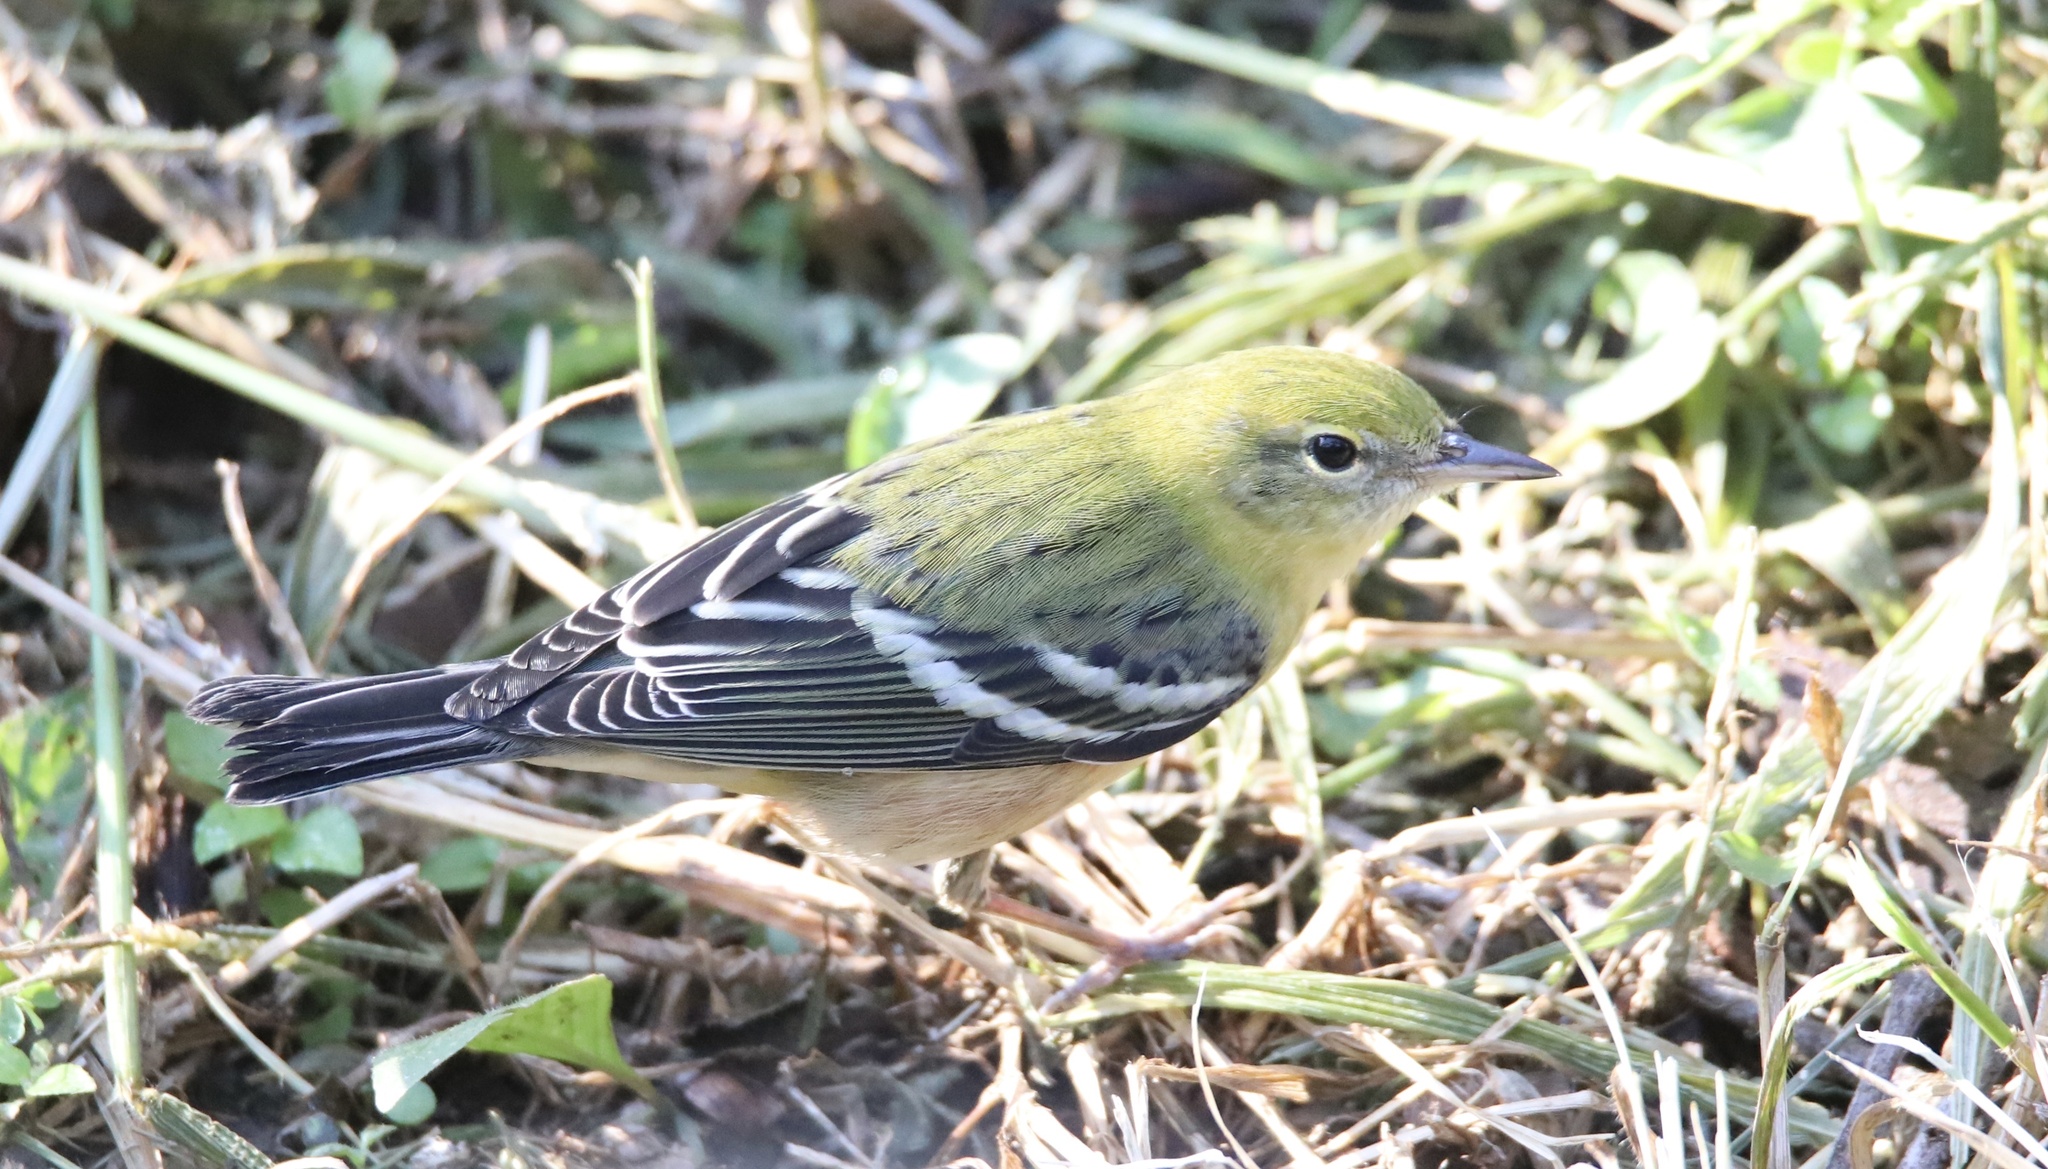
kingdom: Animalia
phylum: Chordata
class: Aves
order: Passeriformes
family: Parulidae
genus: Setophaga
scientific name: Setophaga castanea
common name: Bay-breasted warbler
